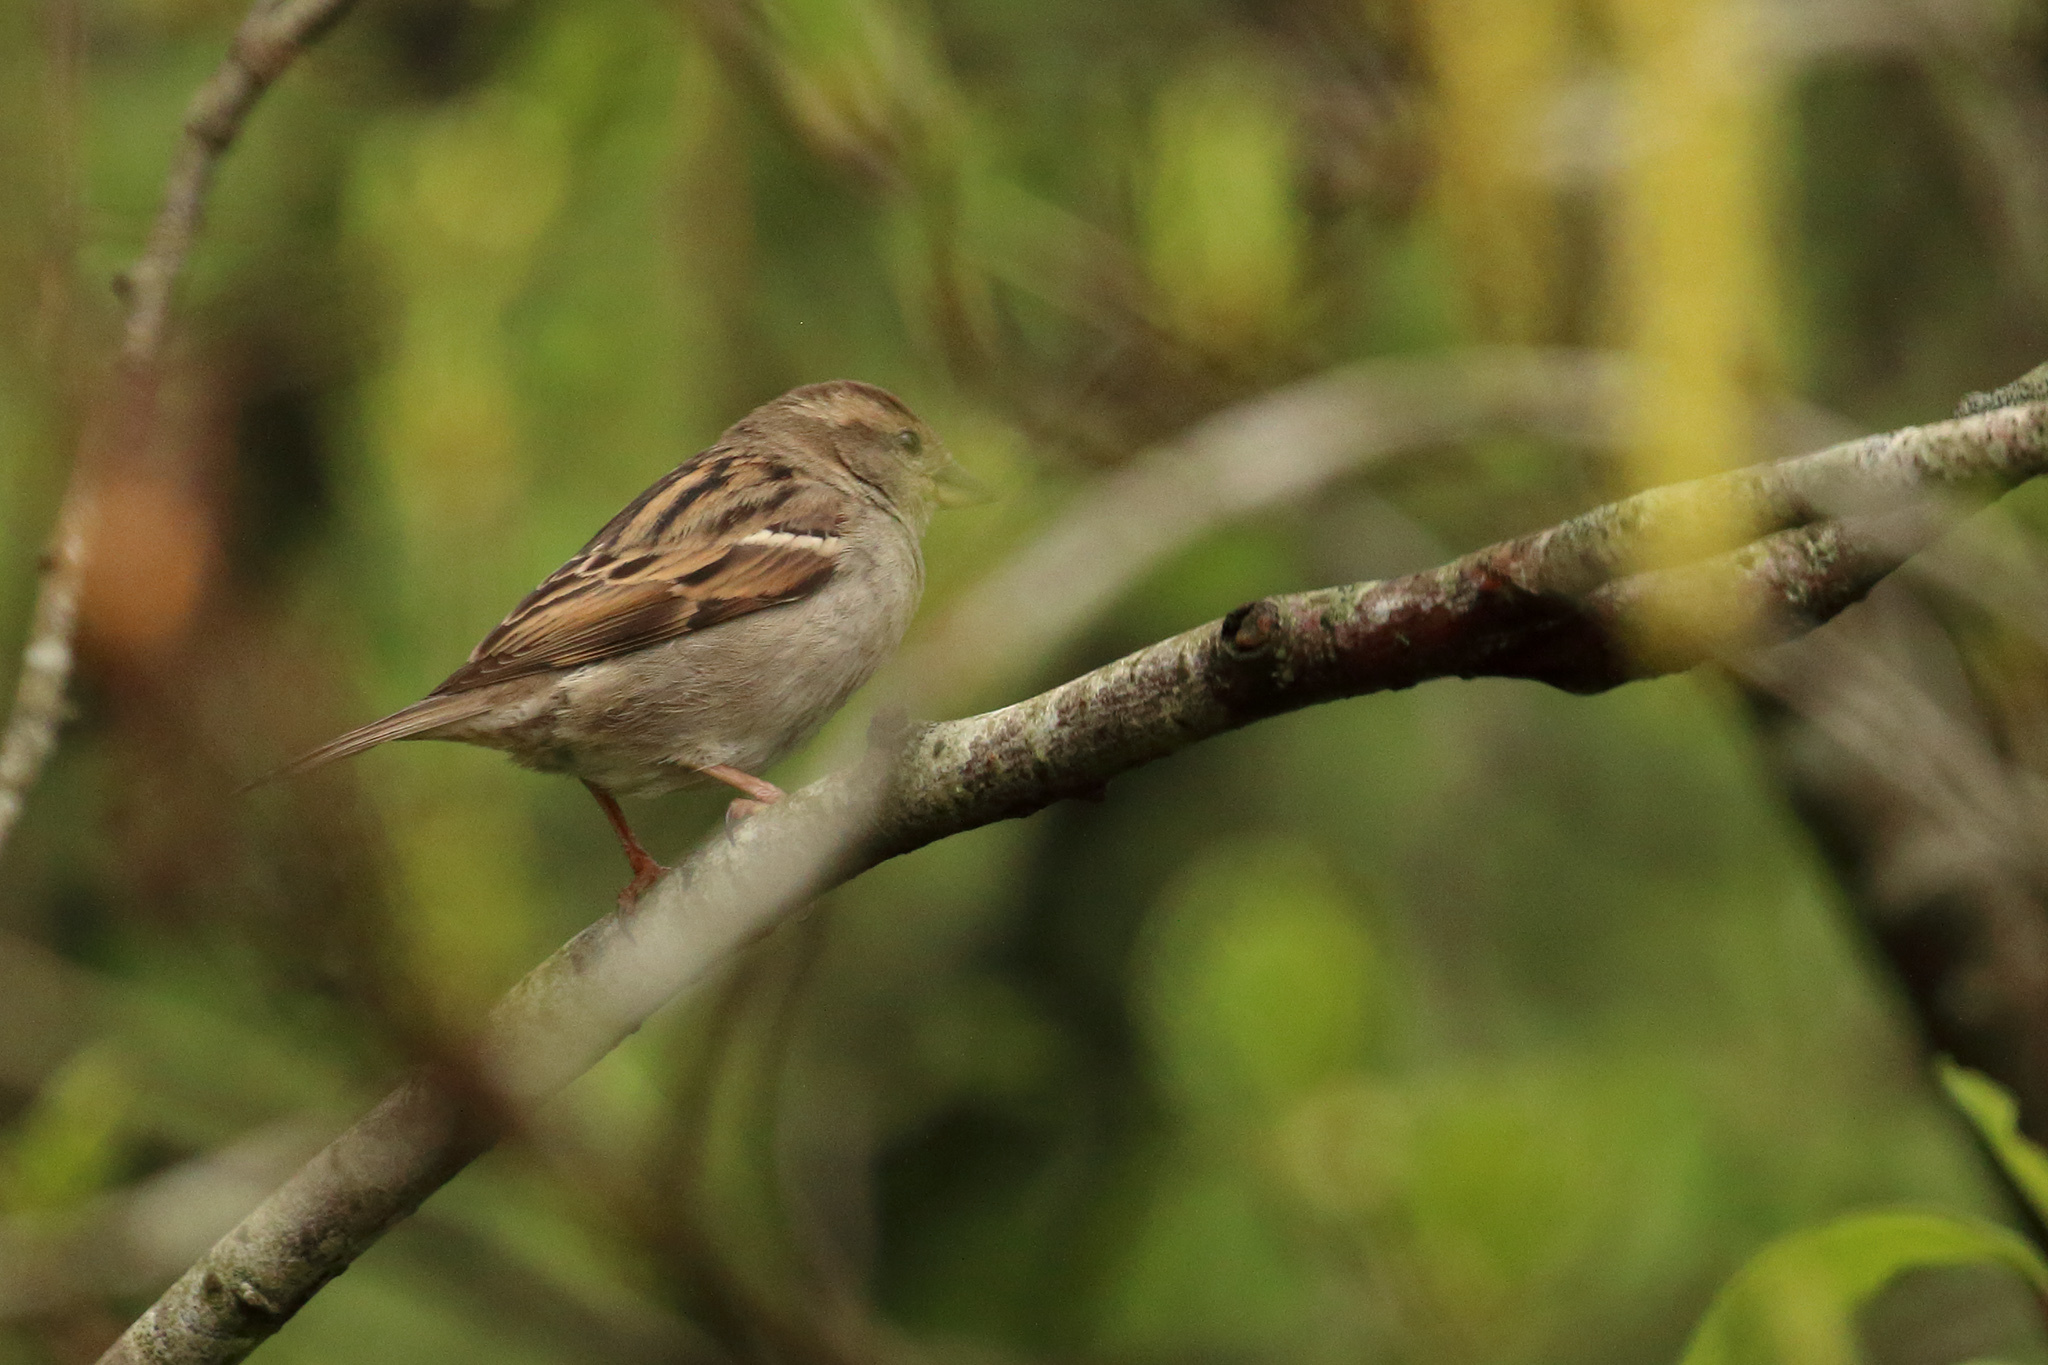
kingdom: Animalia
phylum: Chordata
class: Aves
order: Passeriformes
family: Passeridae
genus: Passer
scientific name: Passer domesticus
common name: House sparrow
